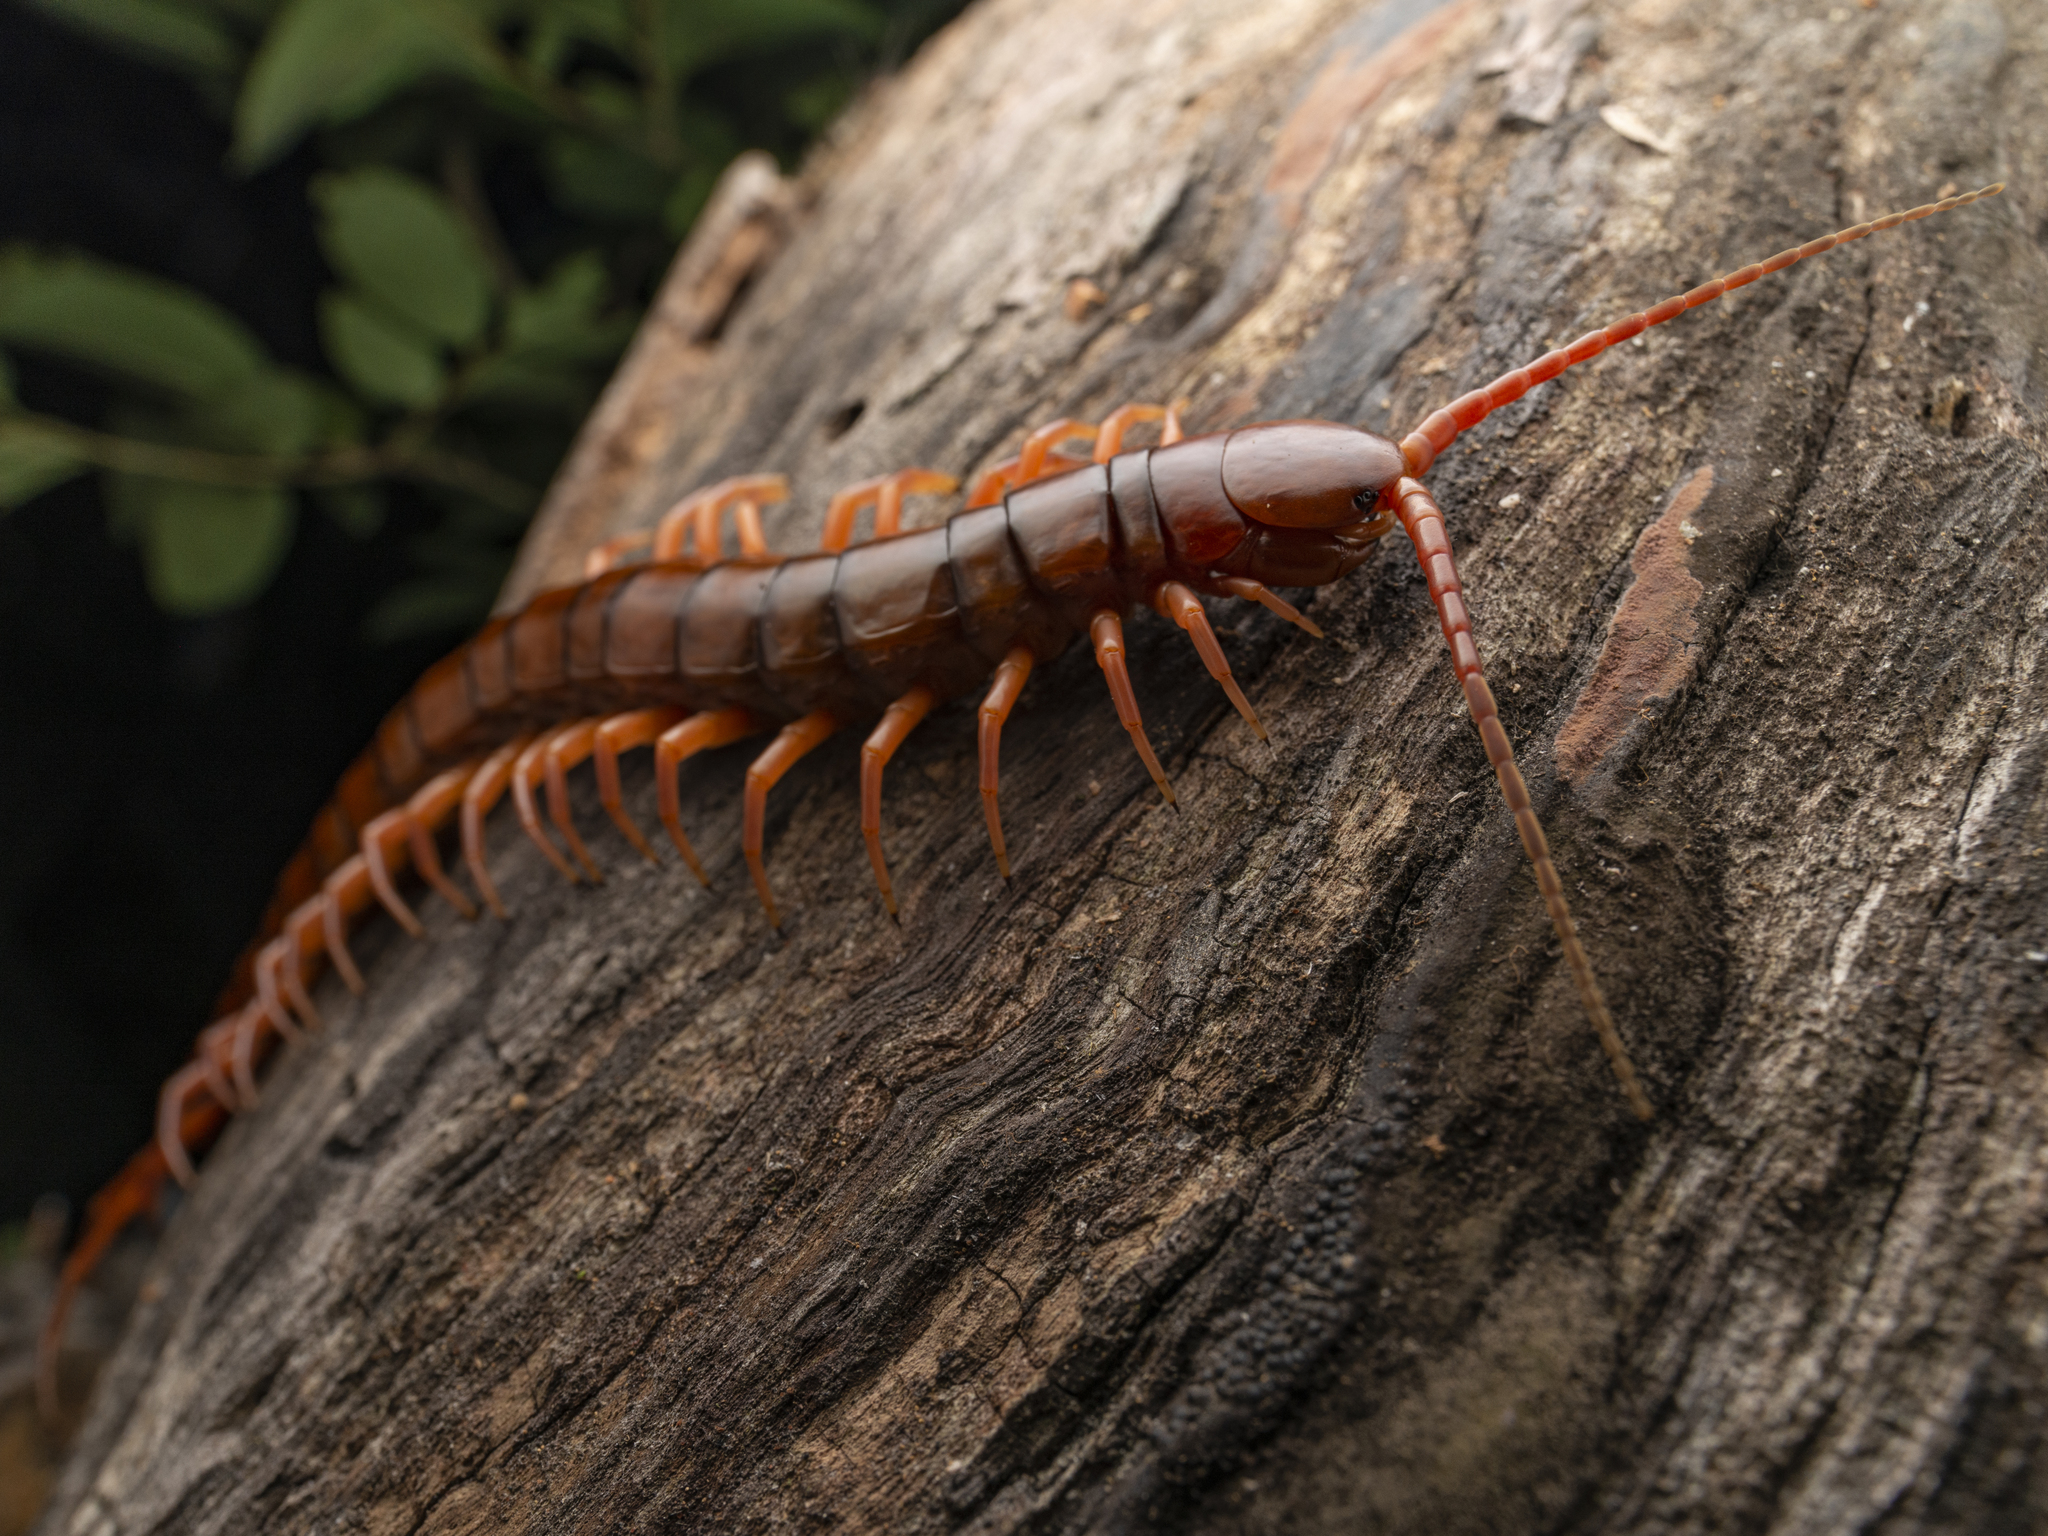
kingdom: Animalia
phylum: Arthropoda
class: Chilopoda
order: Scolopendromorpha
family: Scolopendridae
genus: Scolopendra
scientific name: Scolopendra dehaani
